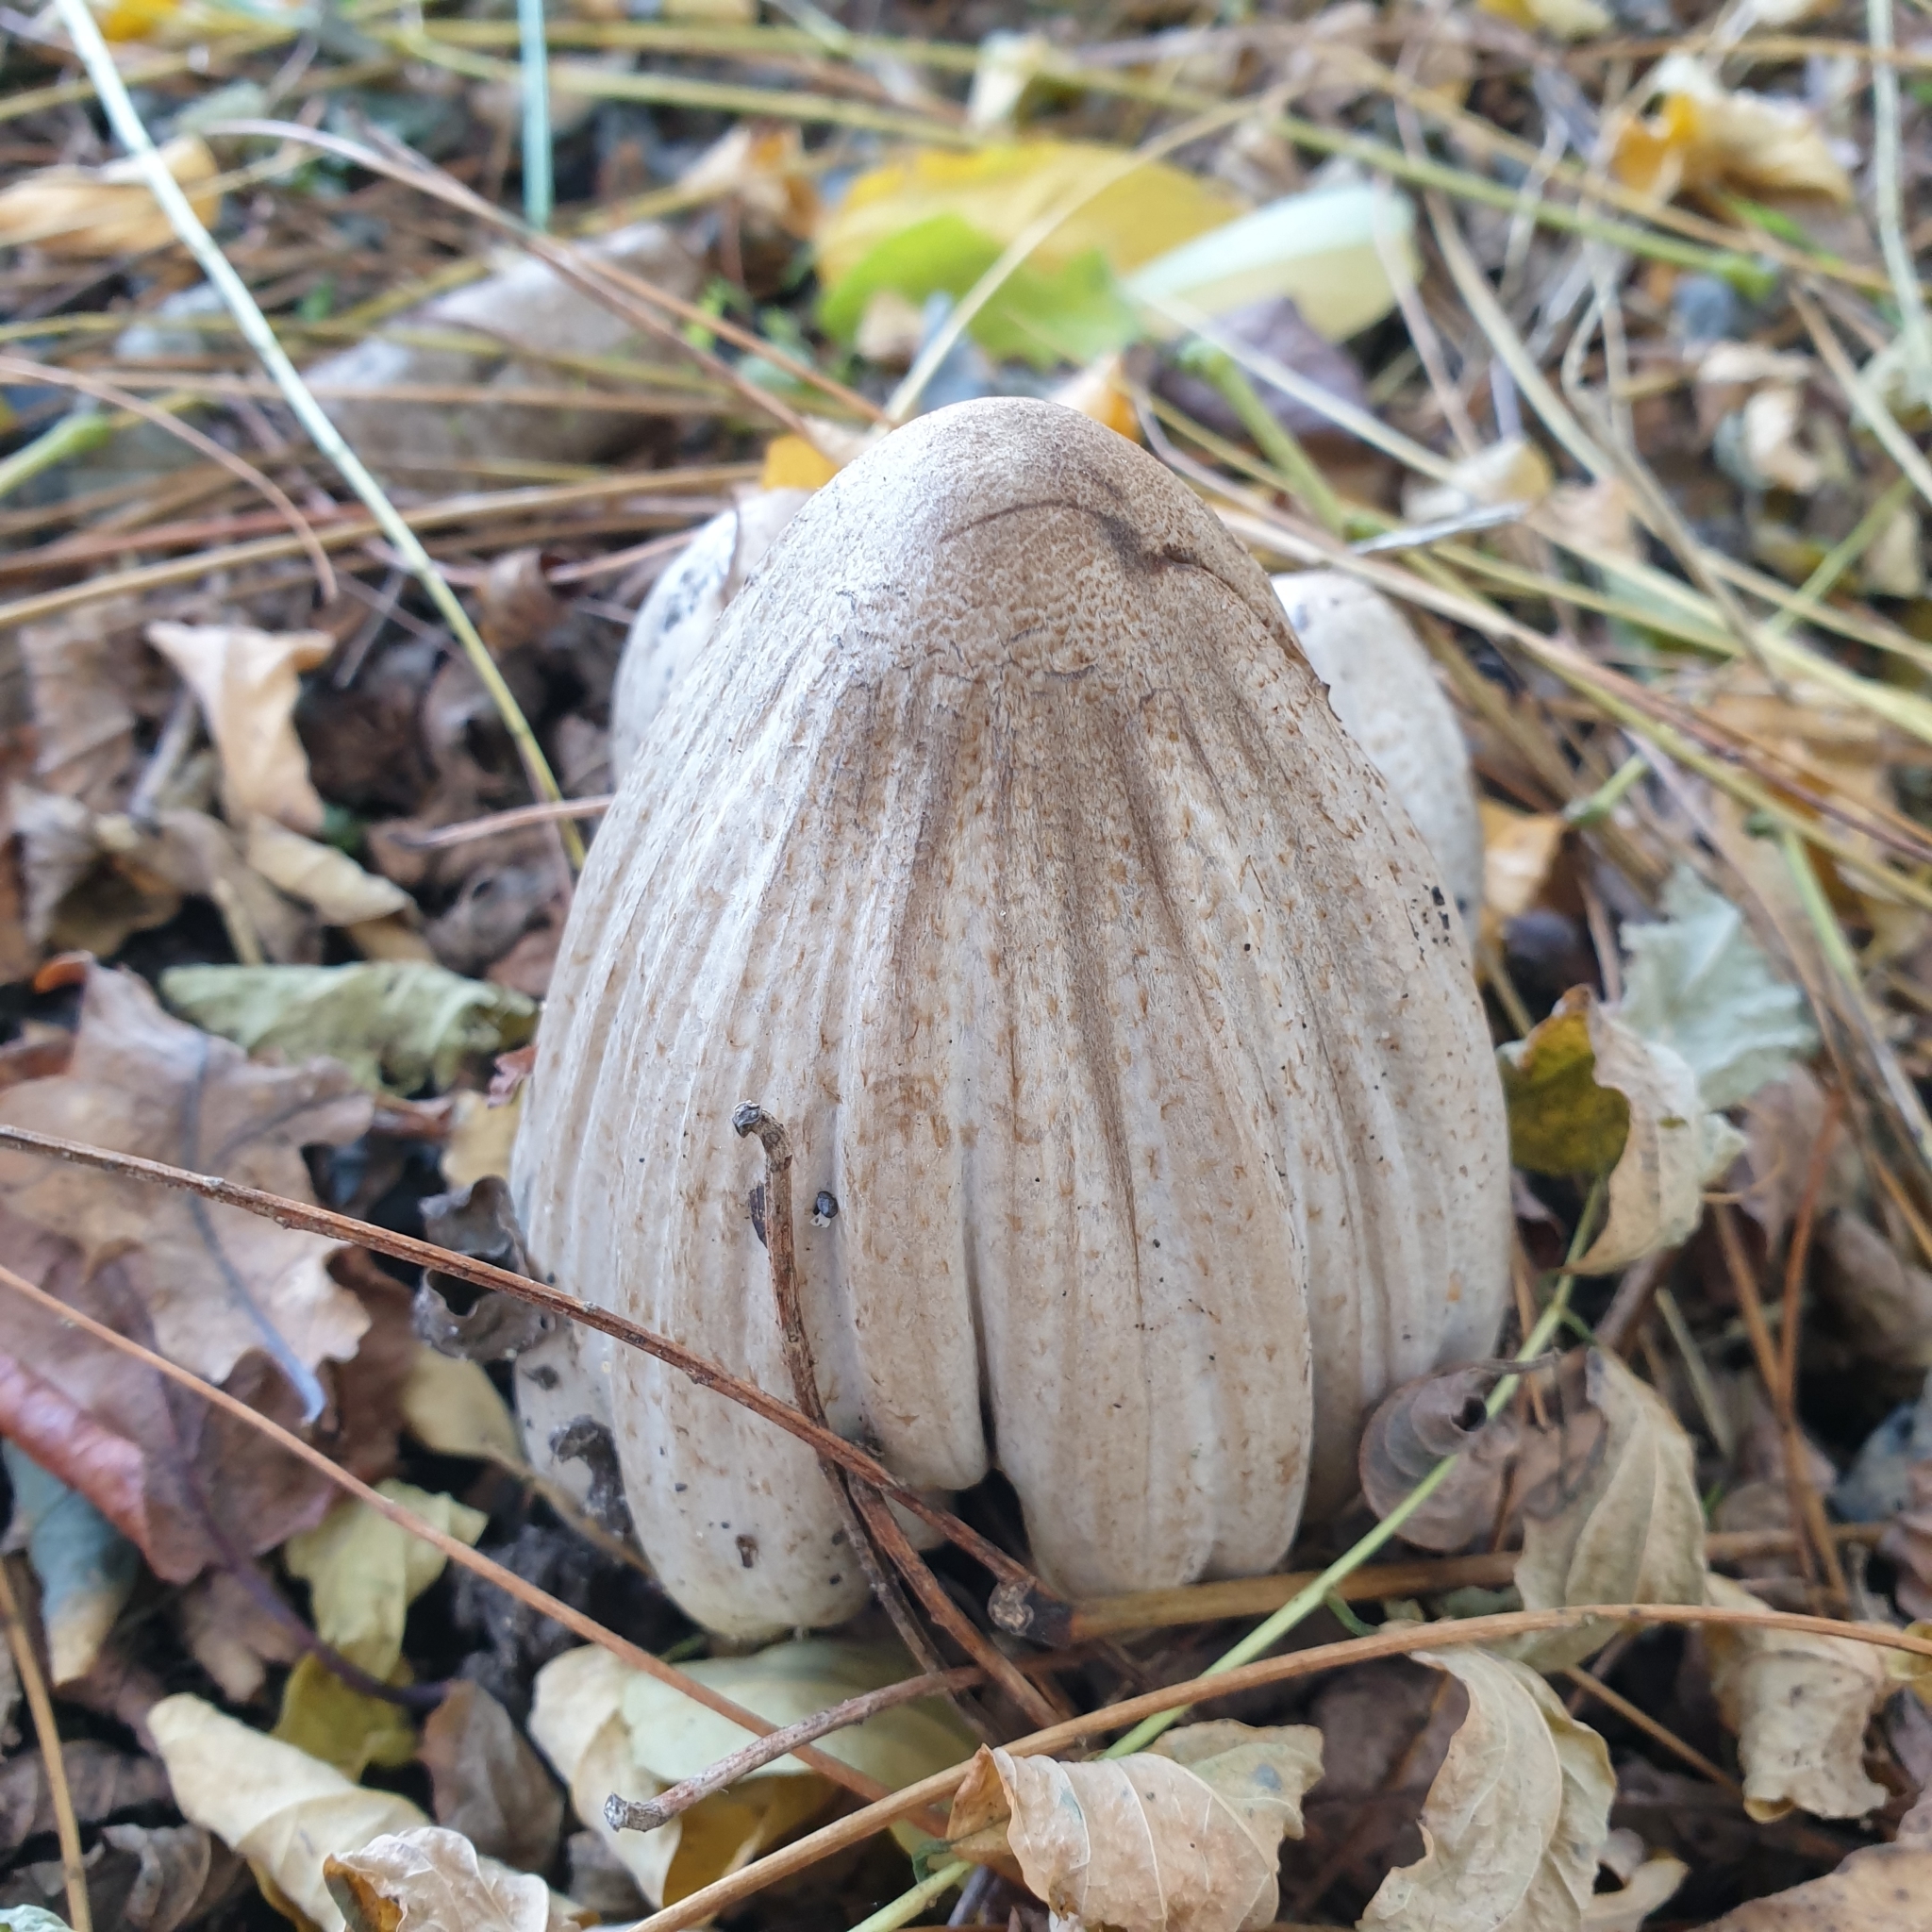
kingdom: Fungi
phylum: Basidiomycota
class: Agaricomycetes
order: Agaricales
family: Psathyrellaceae
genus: Coprinopsis
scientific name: Coprinopsis atramentaria
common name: Common ink-cap
